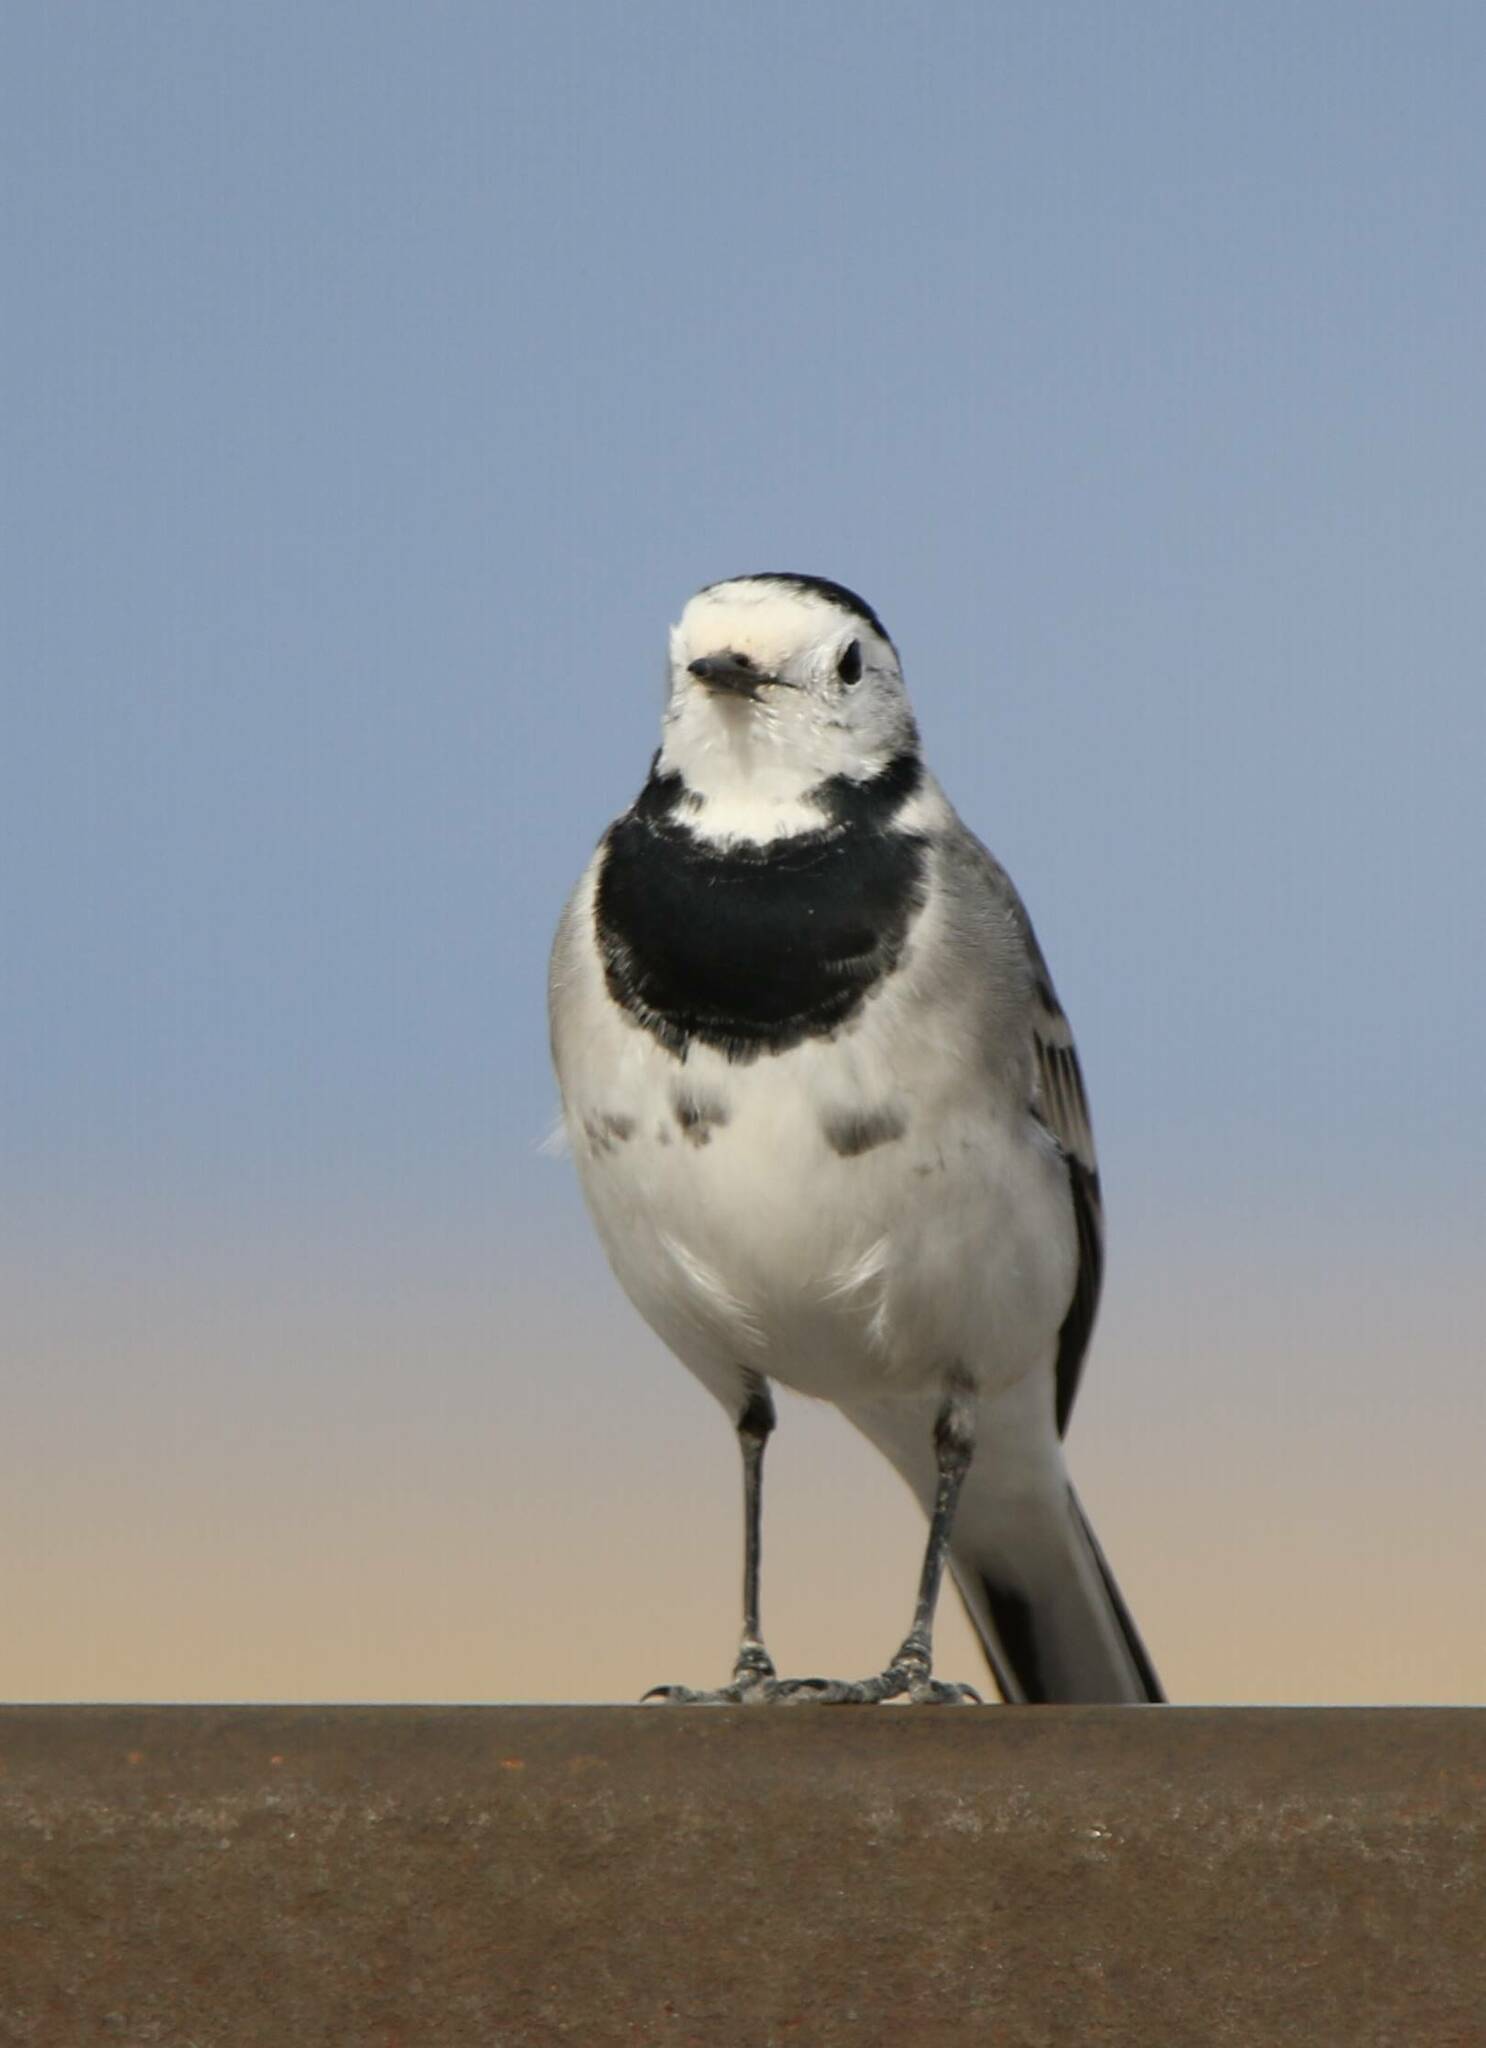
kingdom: Animalia
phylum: Chordata
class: Aves
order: Passeriformes
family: Motacillidae
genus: Motacilla
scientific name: Motacilla alba
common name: White wagtail
